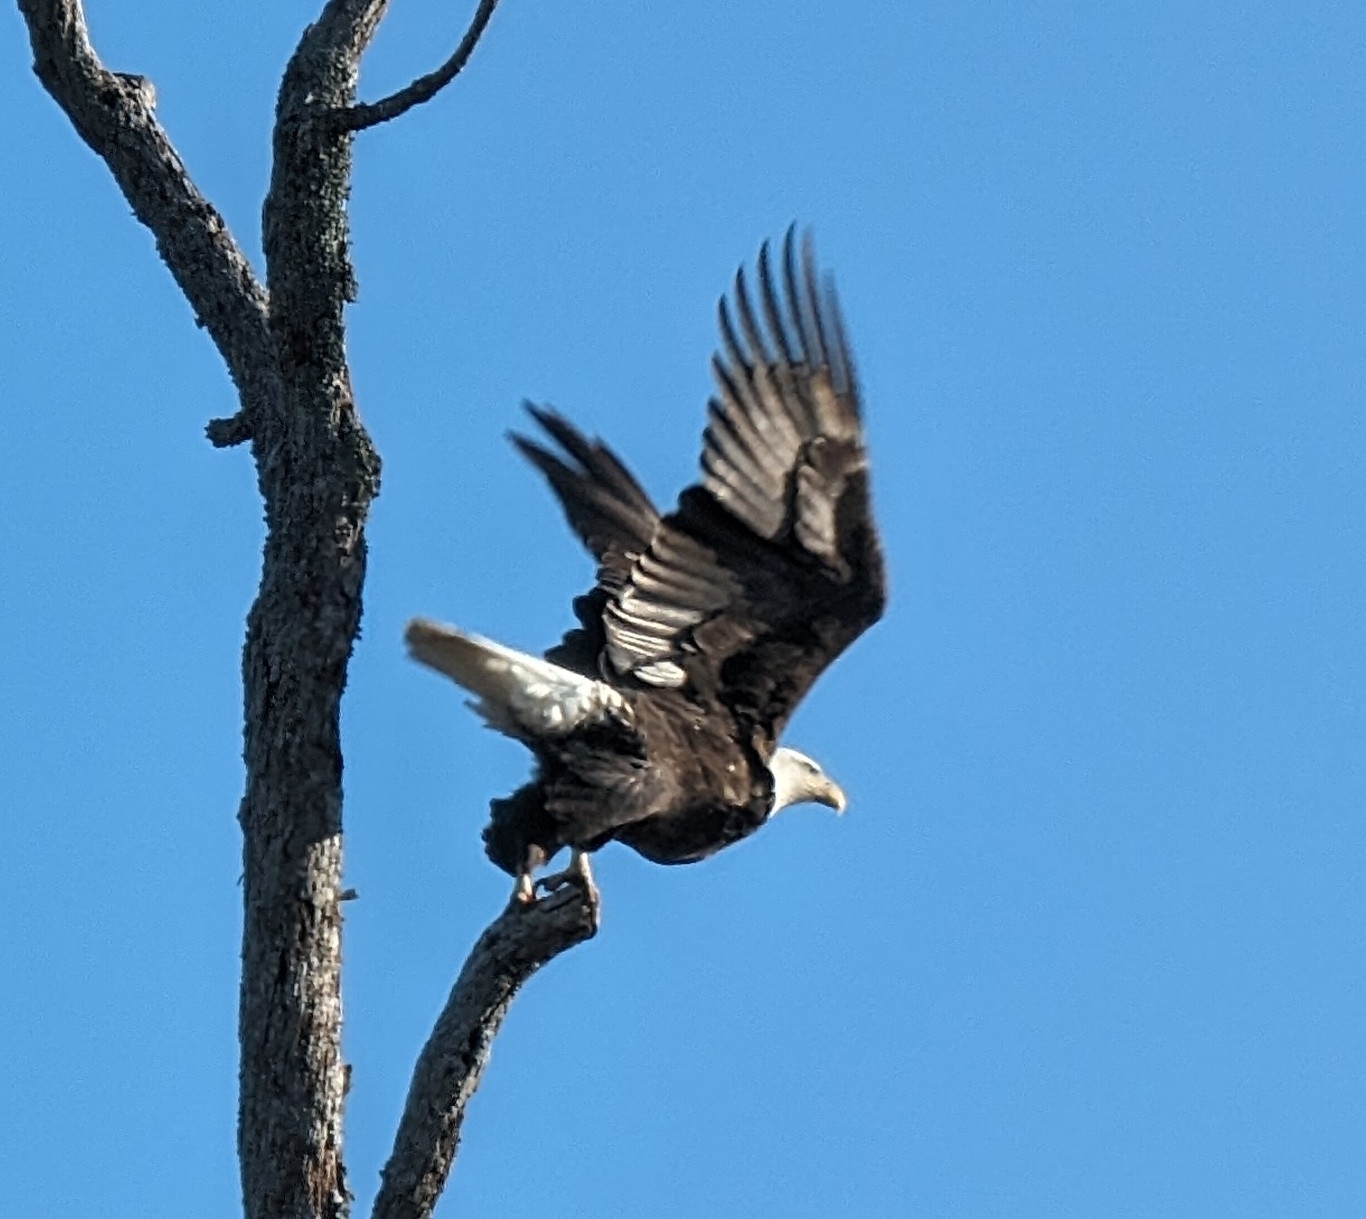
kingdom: Animalia
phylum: Chordata
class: Aves
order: Accipitriformes
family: Accipitridae
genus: Haliaeetus
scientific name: Haliaeetus leucocephalus
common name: Bald eagle
